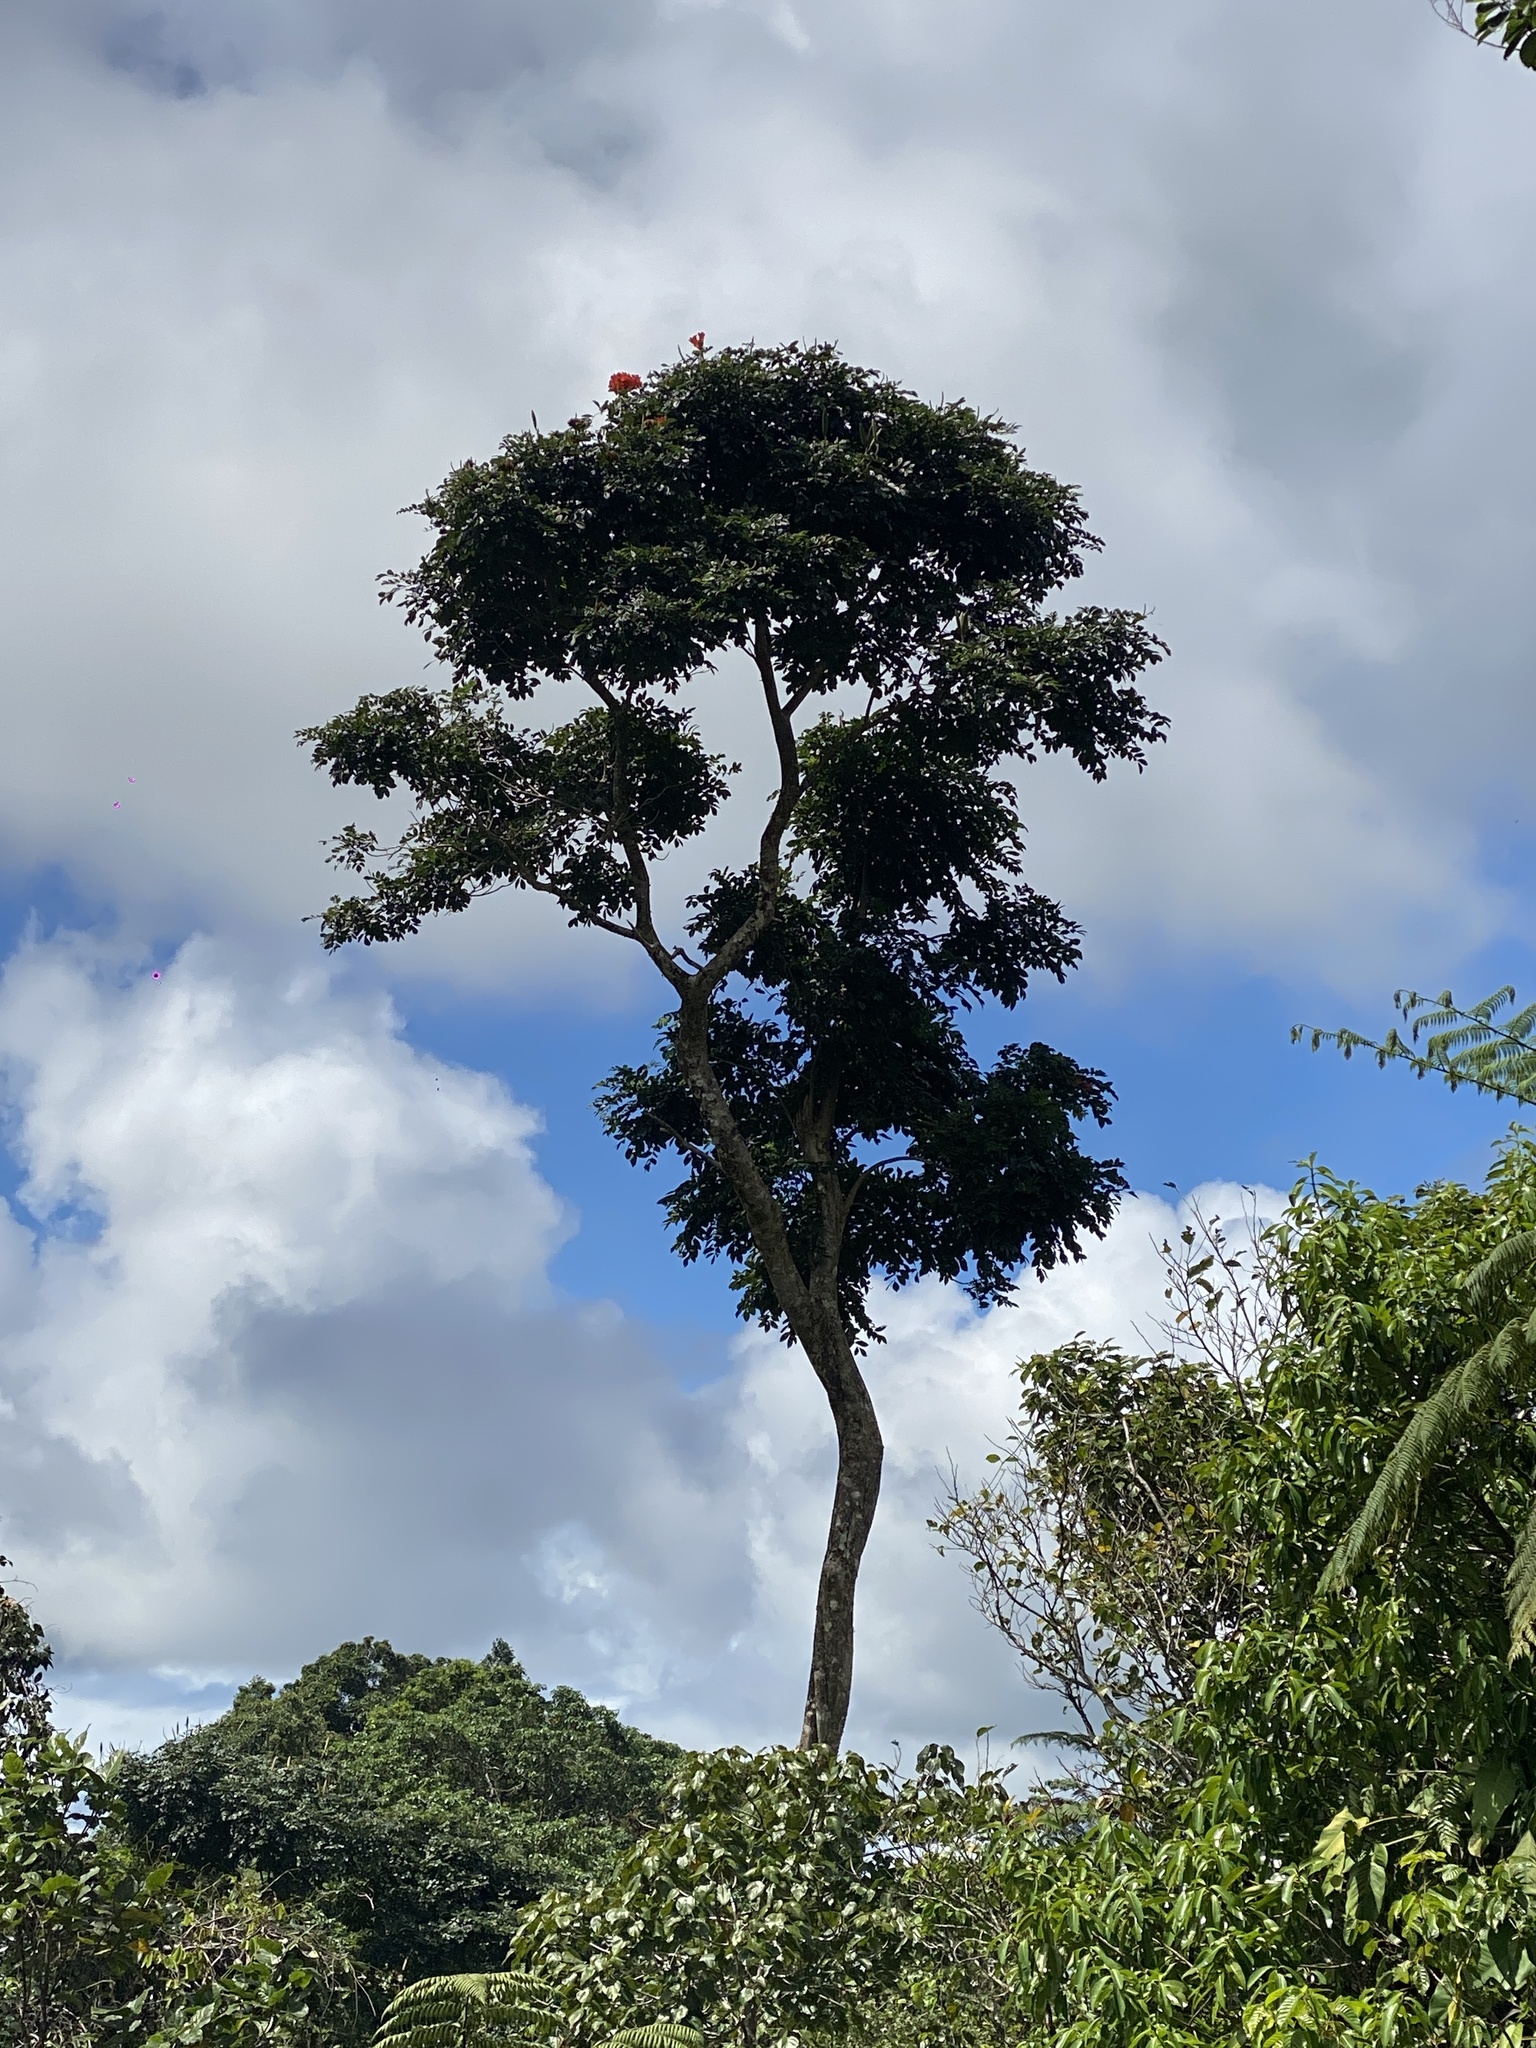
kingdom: Plantae
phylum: Tracheophyta
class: Magnoliopsida
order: Lamiales
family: Bignoniaceae
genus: Spathodea
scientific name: Spathodea campanulata
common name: African tuliptree
